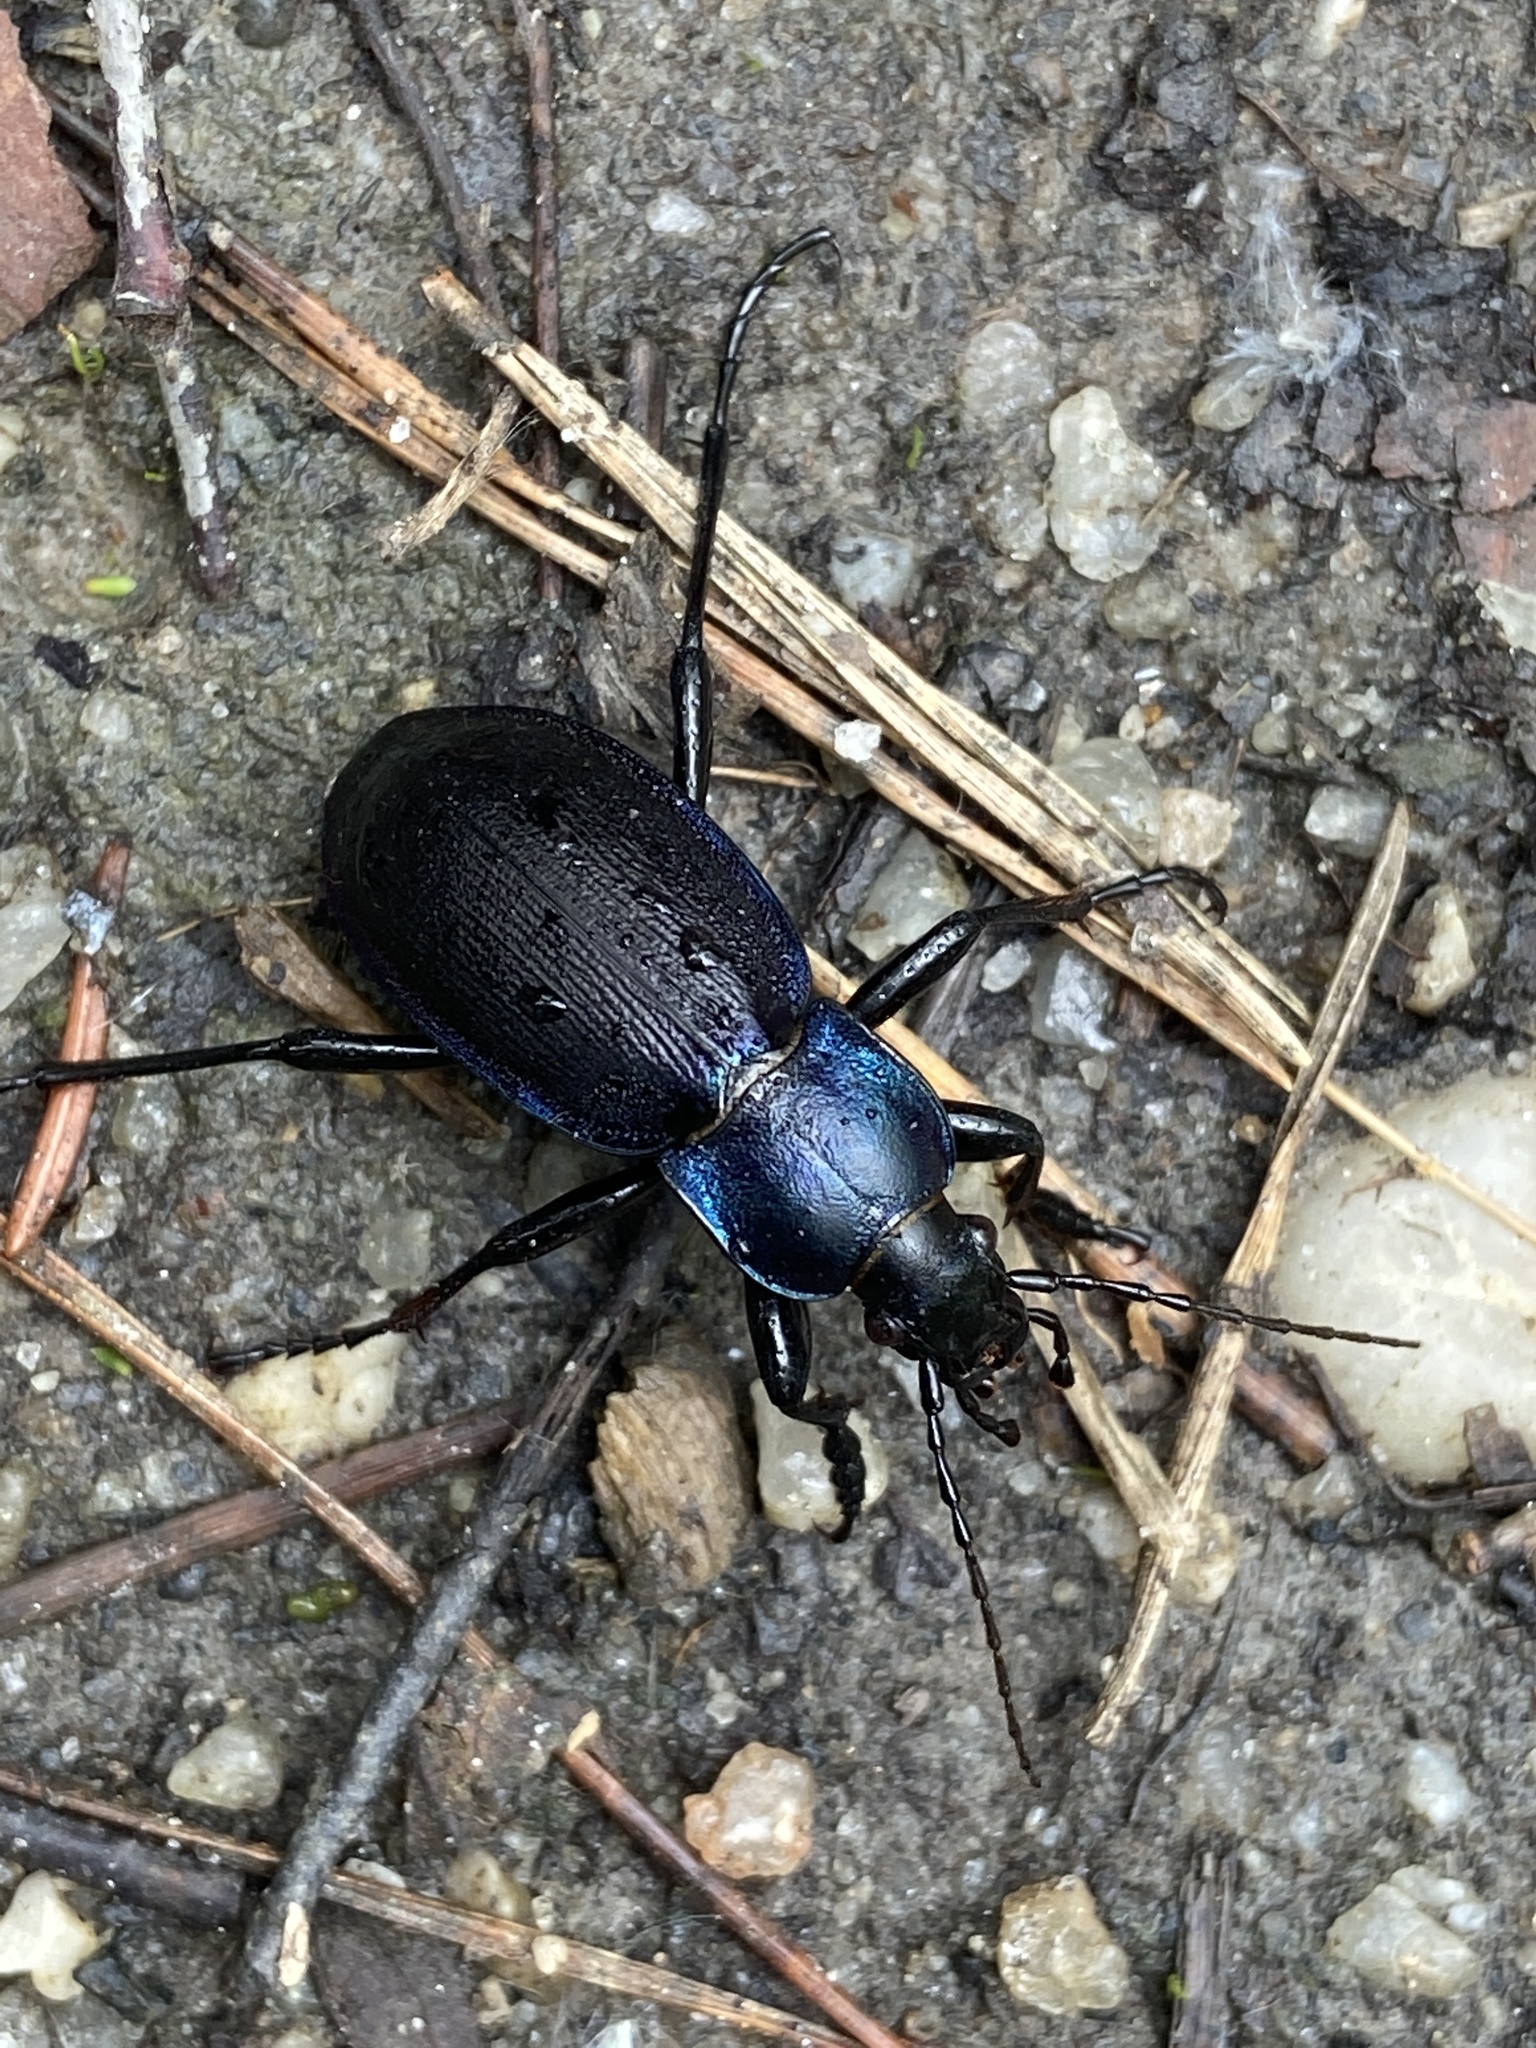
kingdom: Animalia
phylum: Arthropoda
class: Insecta
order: Coleoptera
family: Carabidae
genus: Carabus
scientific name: Carabus violaceus
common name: Violet ground beetle
